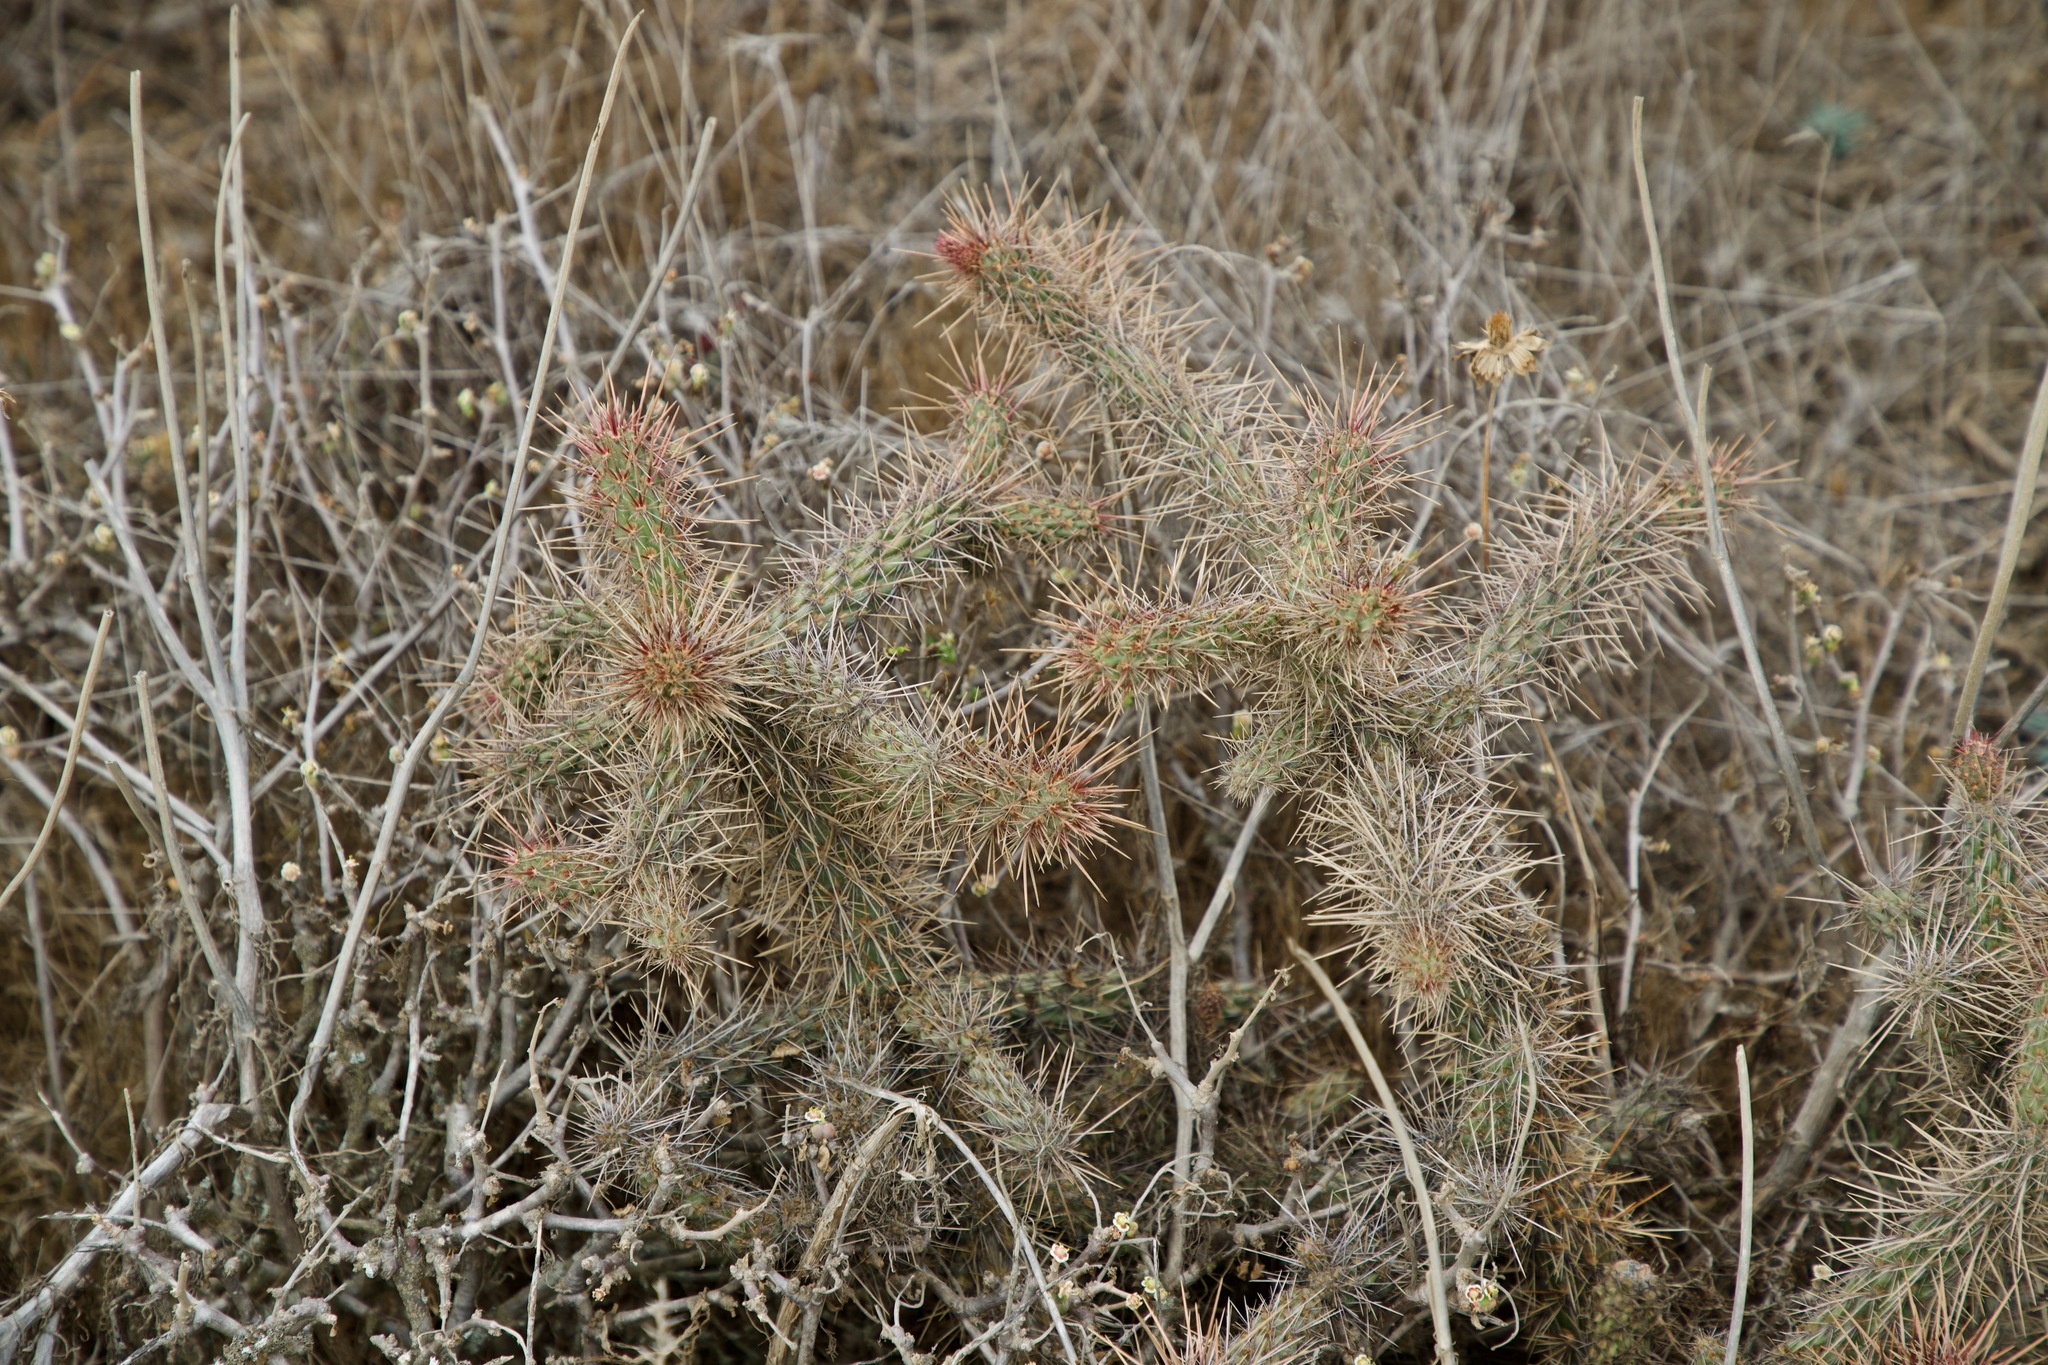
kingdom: Plantae
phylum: Tracheophyta
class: Magnoliopsida
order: Caryophyllales
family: Cactaceae
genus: Cylindropuntia
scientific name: Cylindropuntia prolifera
